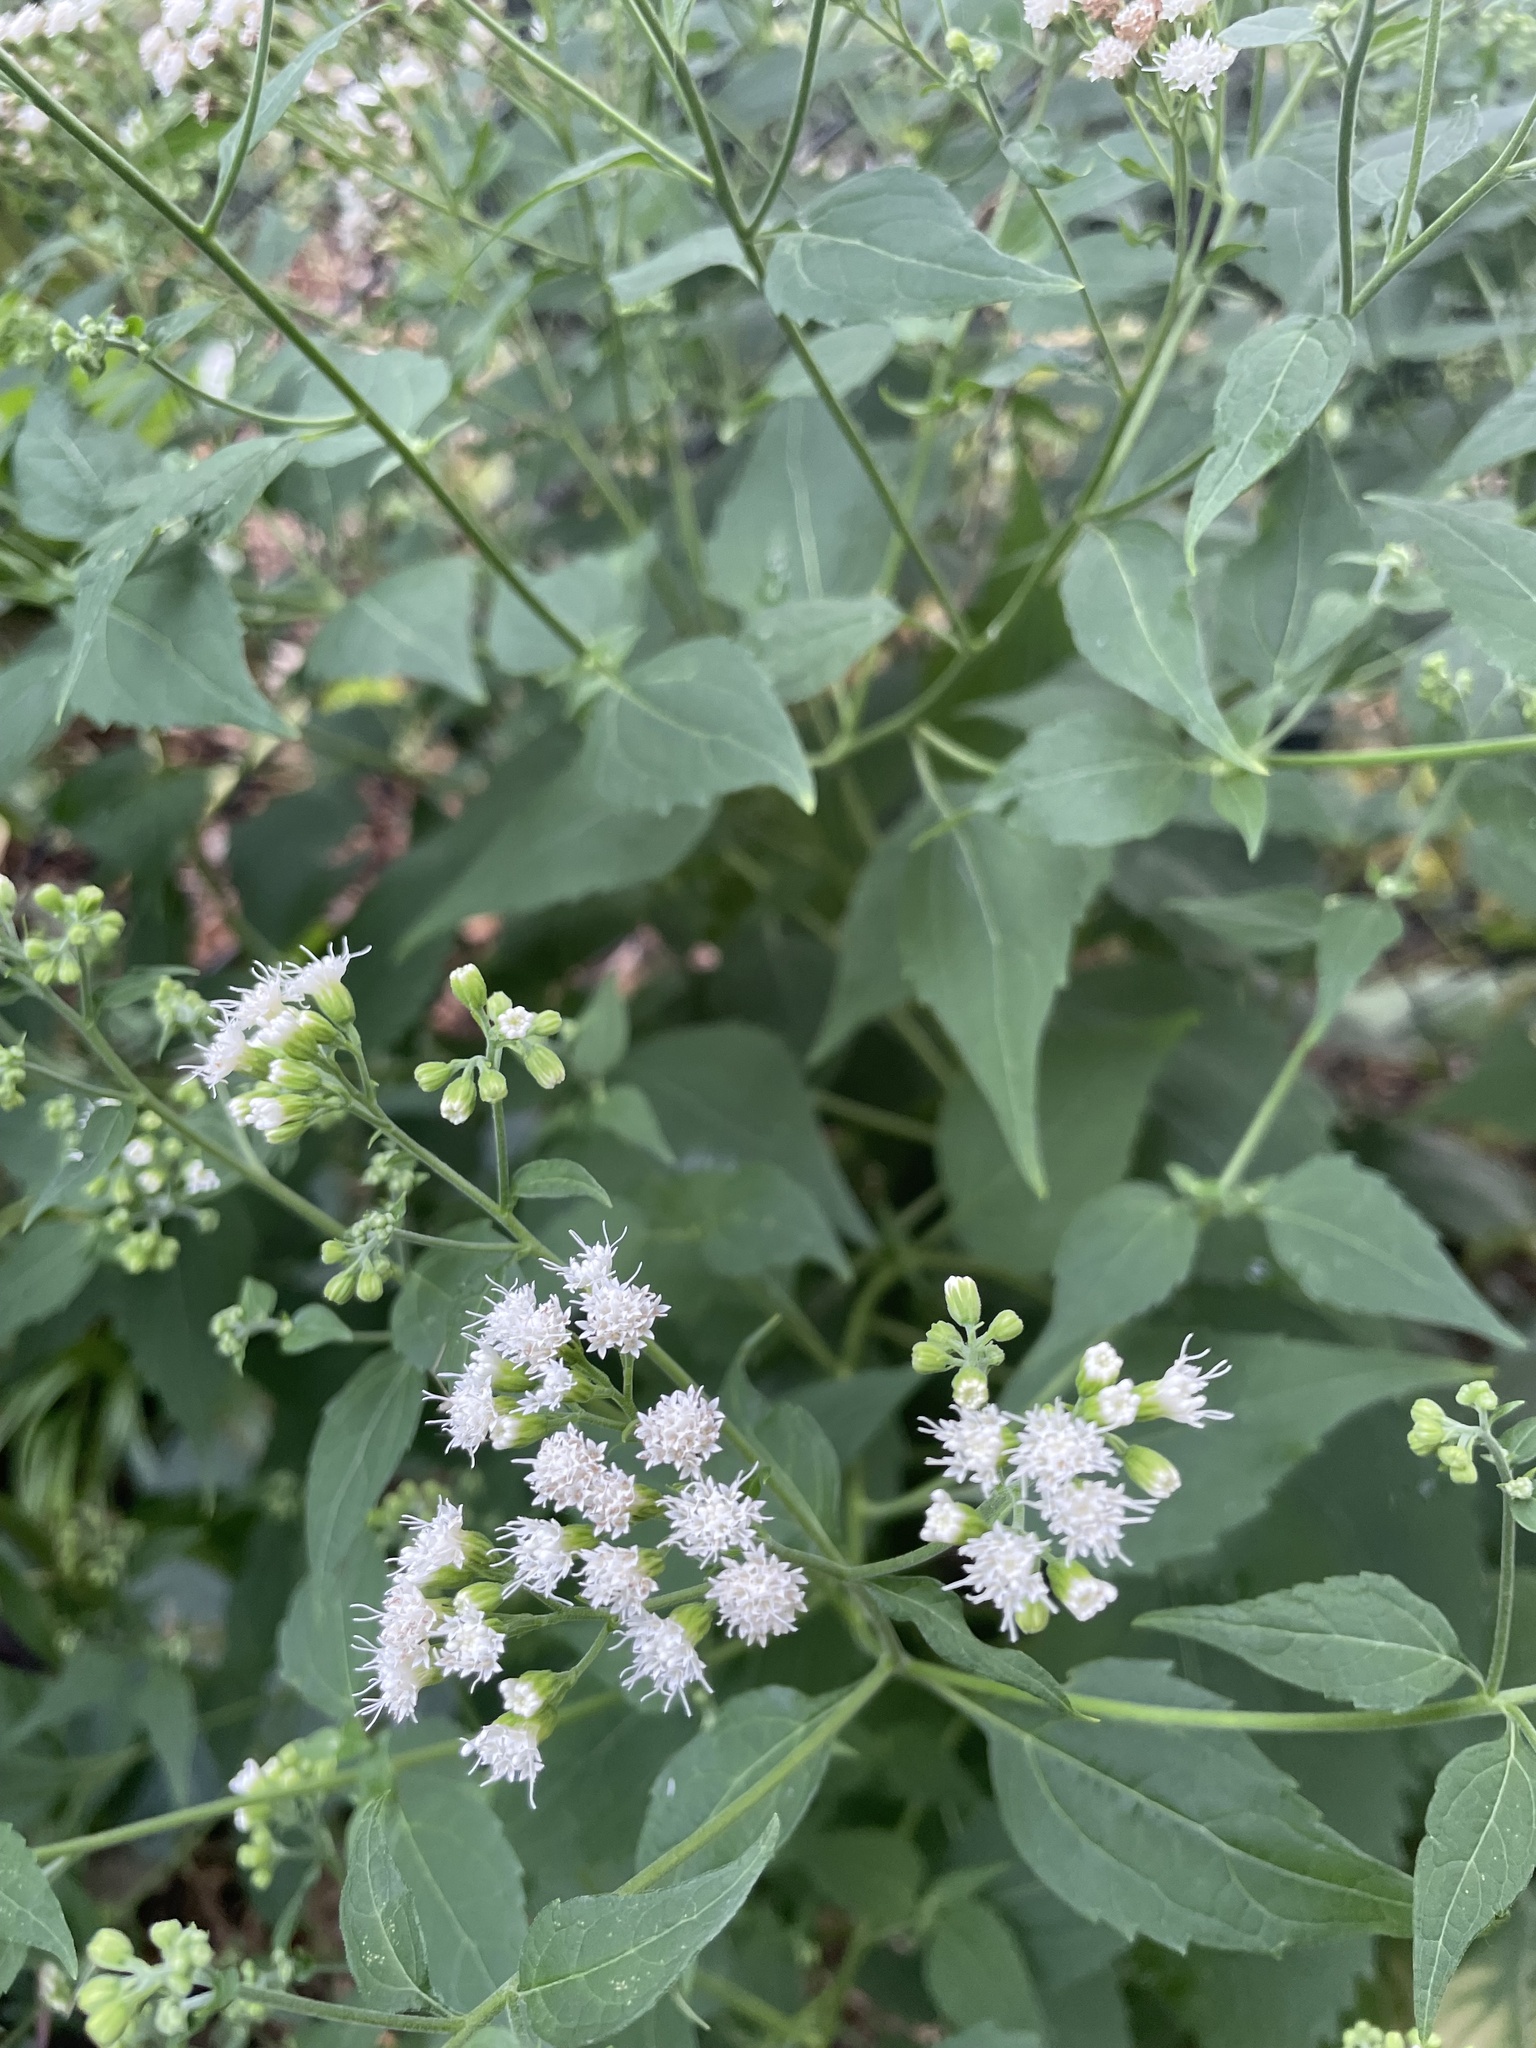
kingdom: Plantae
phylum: Tracheophyta
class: Magnoliopsida
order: Asterales
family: Asteraceae
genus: Ageratina
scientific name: Ageratina altissima
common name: White snakeroot
